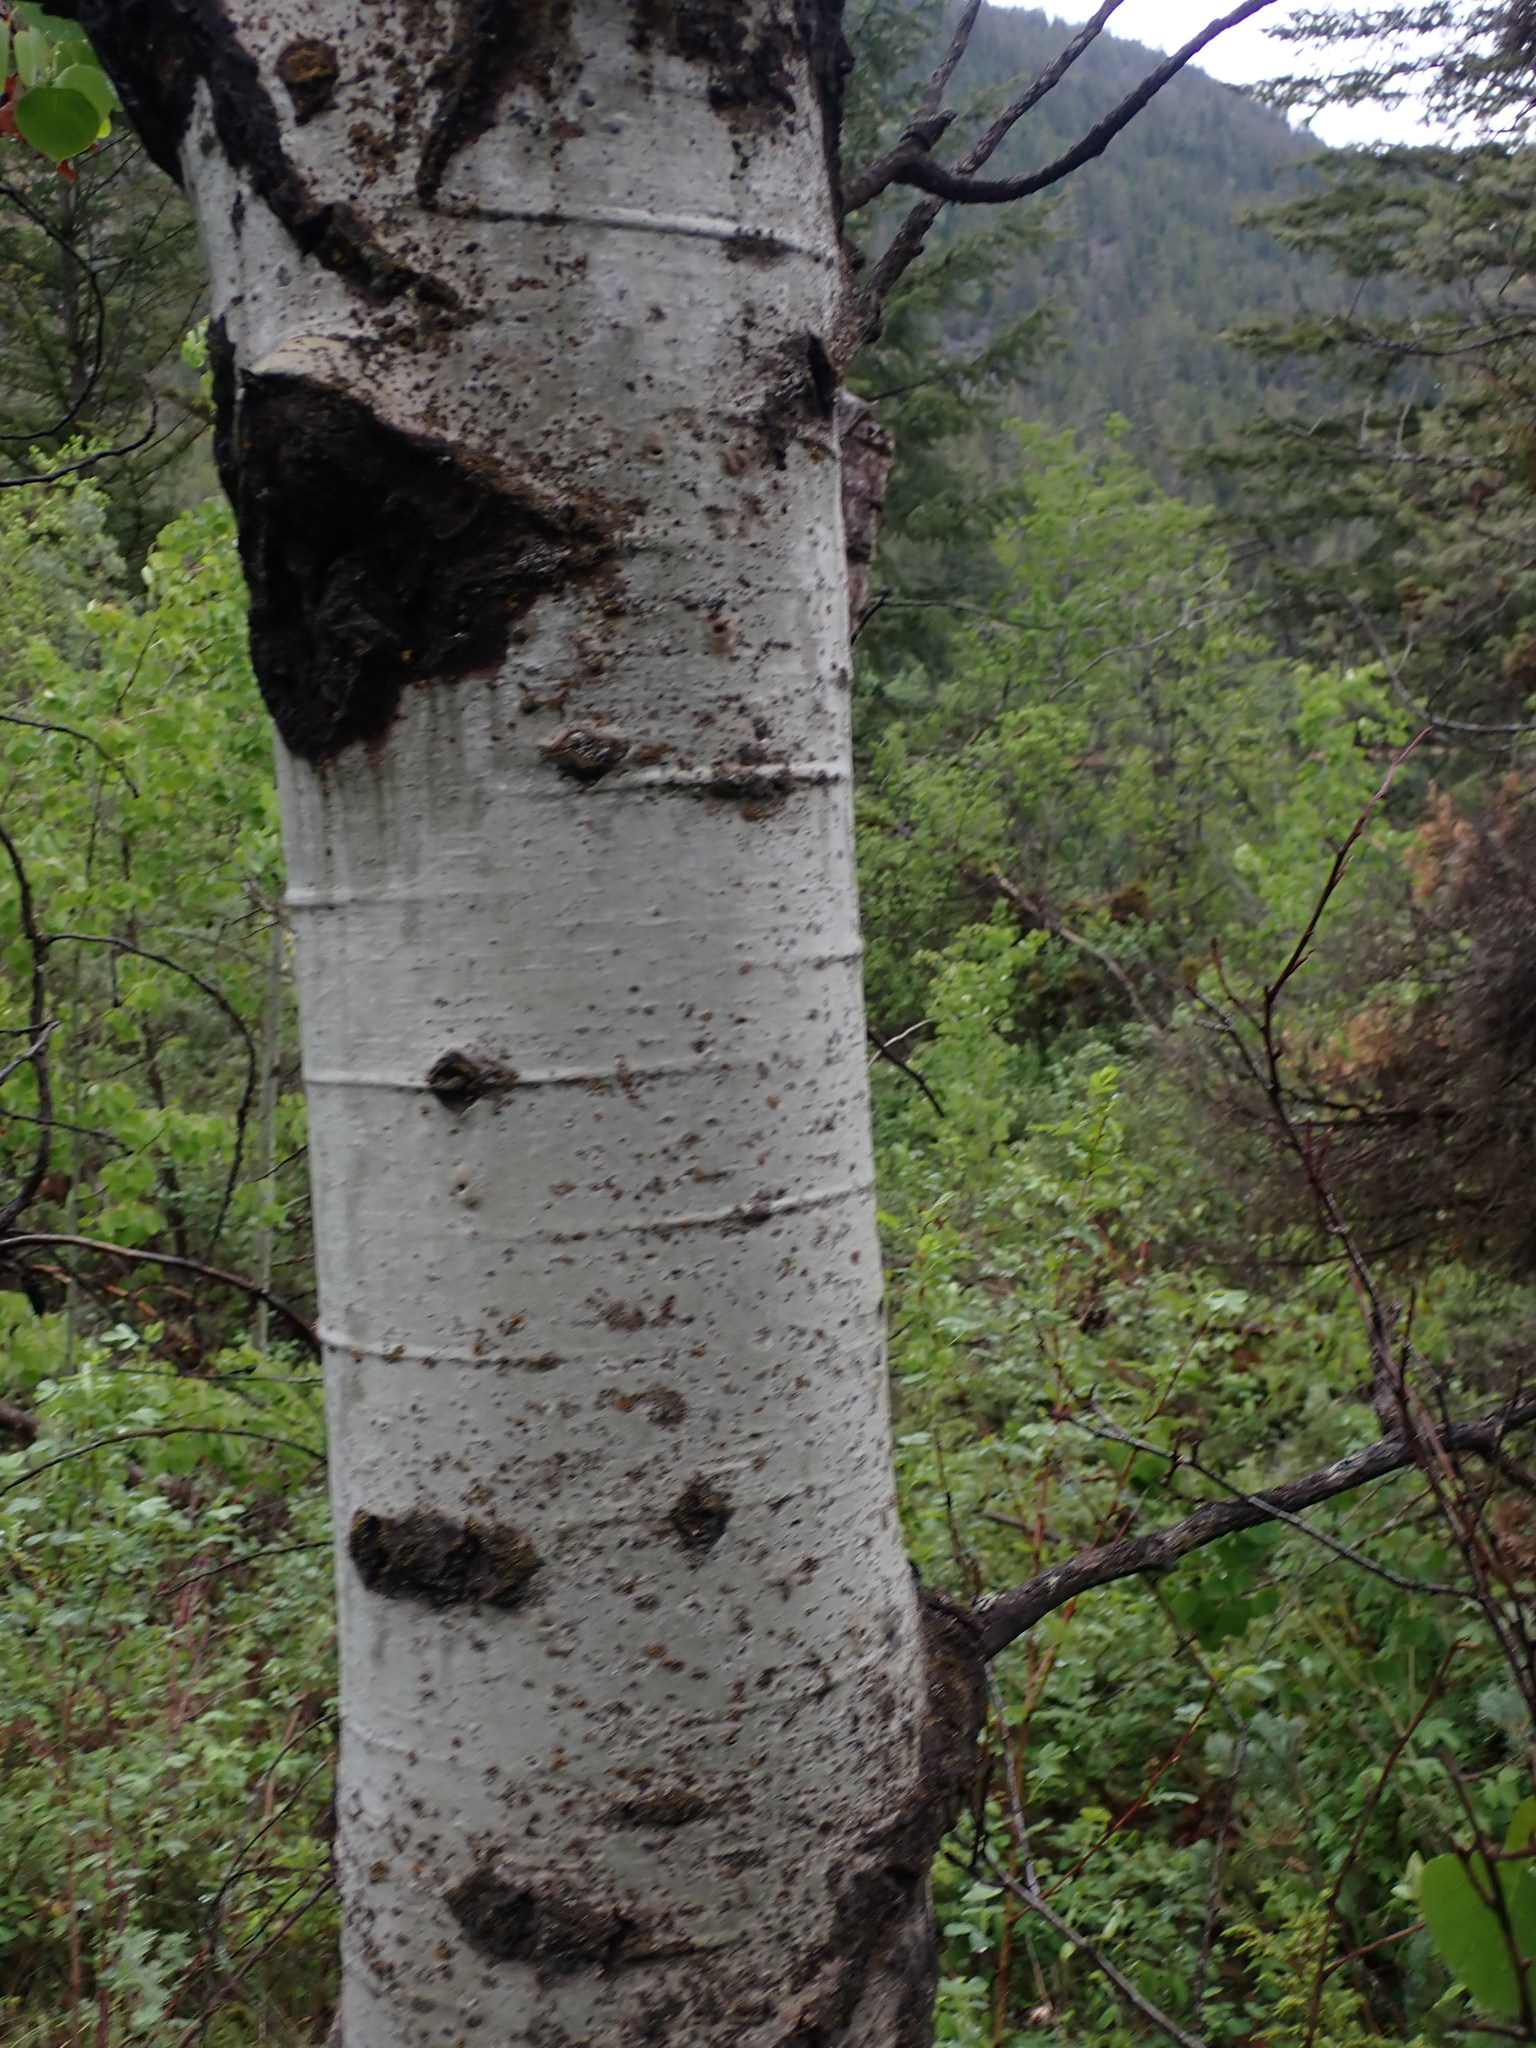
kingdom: Plantae
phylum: Tracheophyta
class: Magnoliopsida
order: Malpighiales
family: Salicaceae
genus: Populus
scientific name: Populus tremuloides
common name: Quaking aspen
